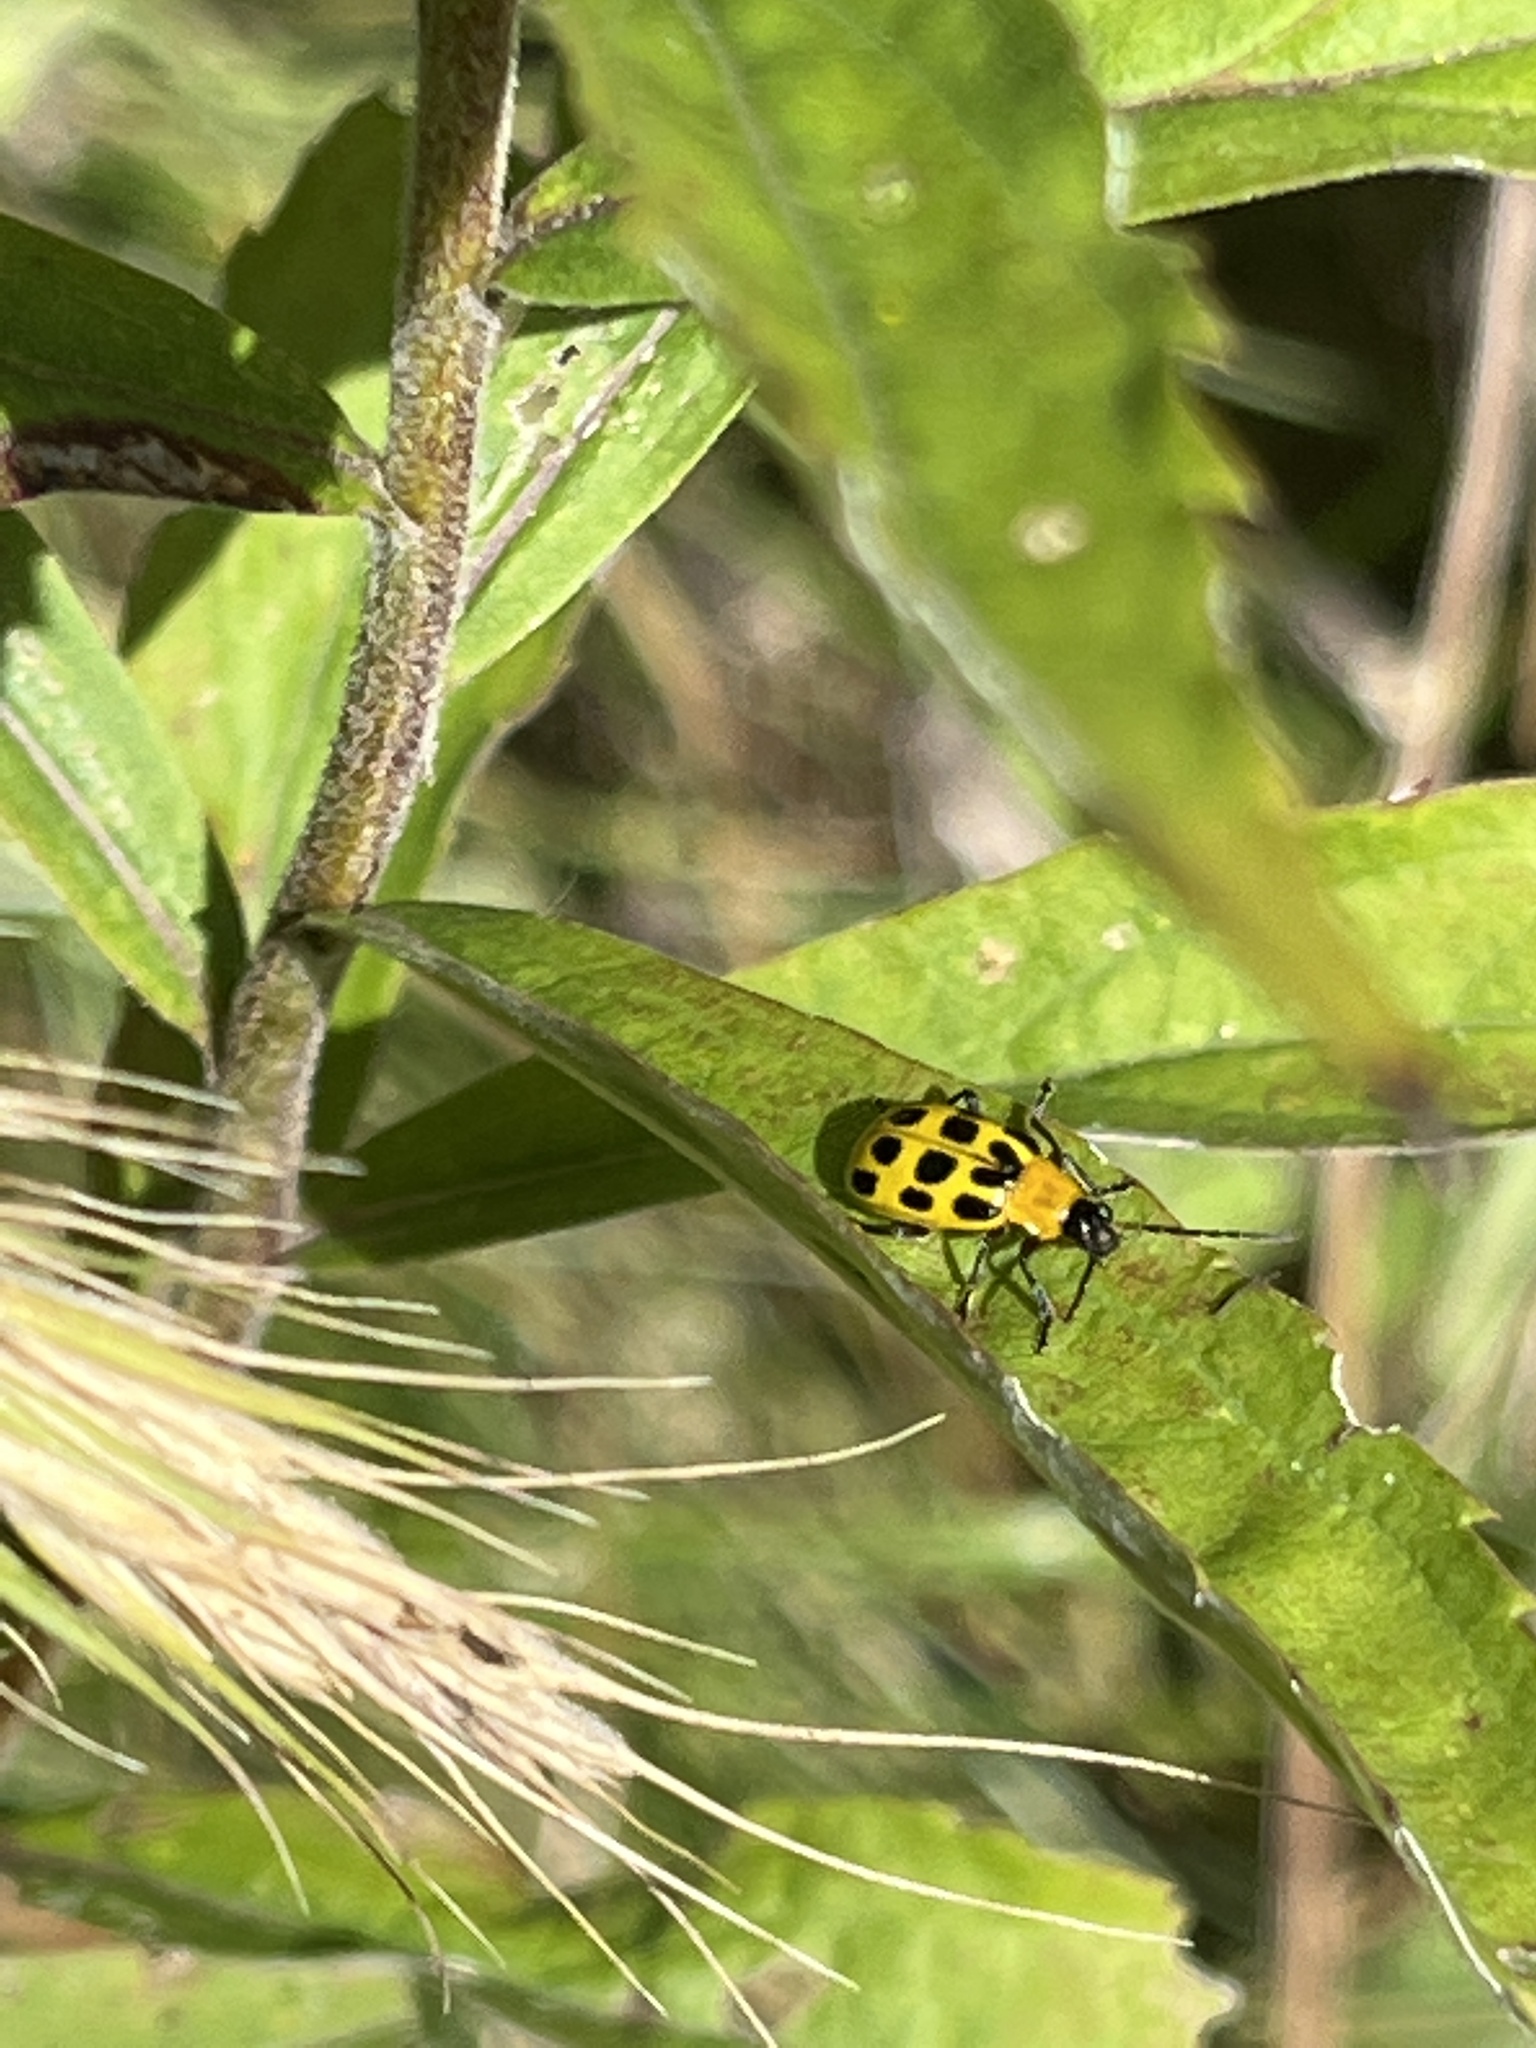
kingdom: Animalia
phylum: Arthropoda
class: Insecta
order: Coleoptera
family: Chrysomelidae
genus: Diabrotica
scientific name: Diabrotica undecimpunctata
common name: Spotted cucumber beetle
